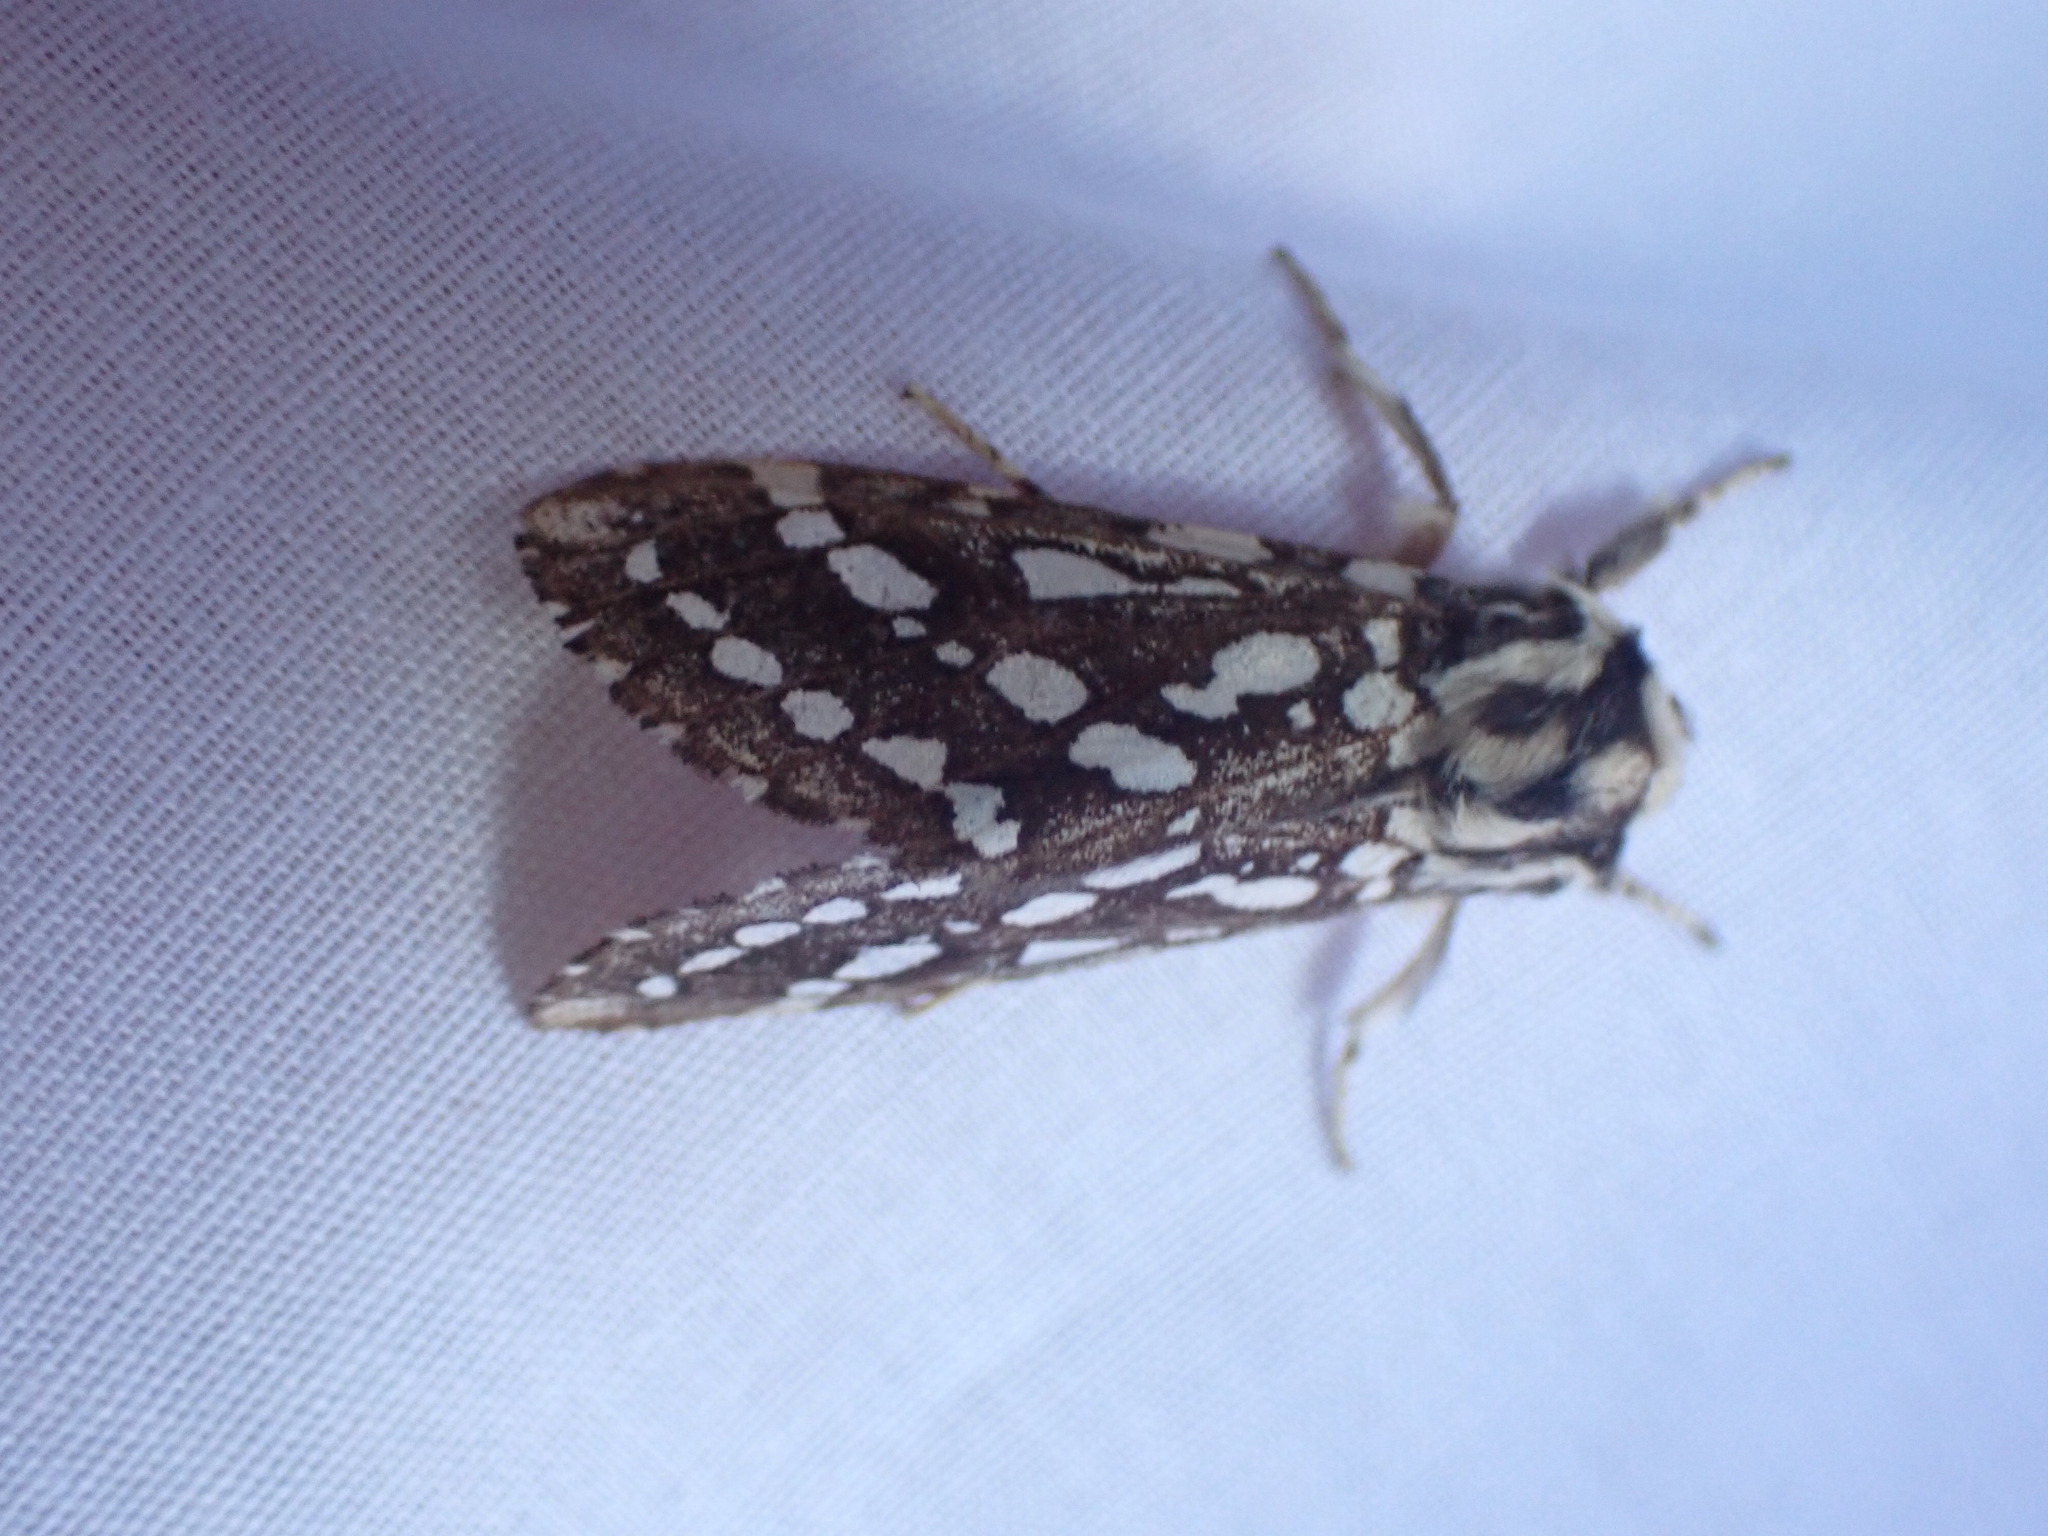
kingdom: Animalia
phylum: Arthropoda
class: Insecta
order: Lepidoptera
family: Erebidae
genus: Lophocampa
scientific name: Lophocampa argentata
